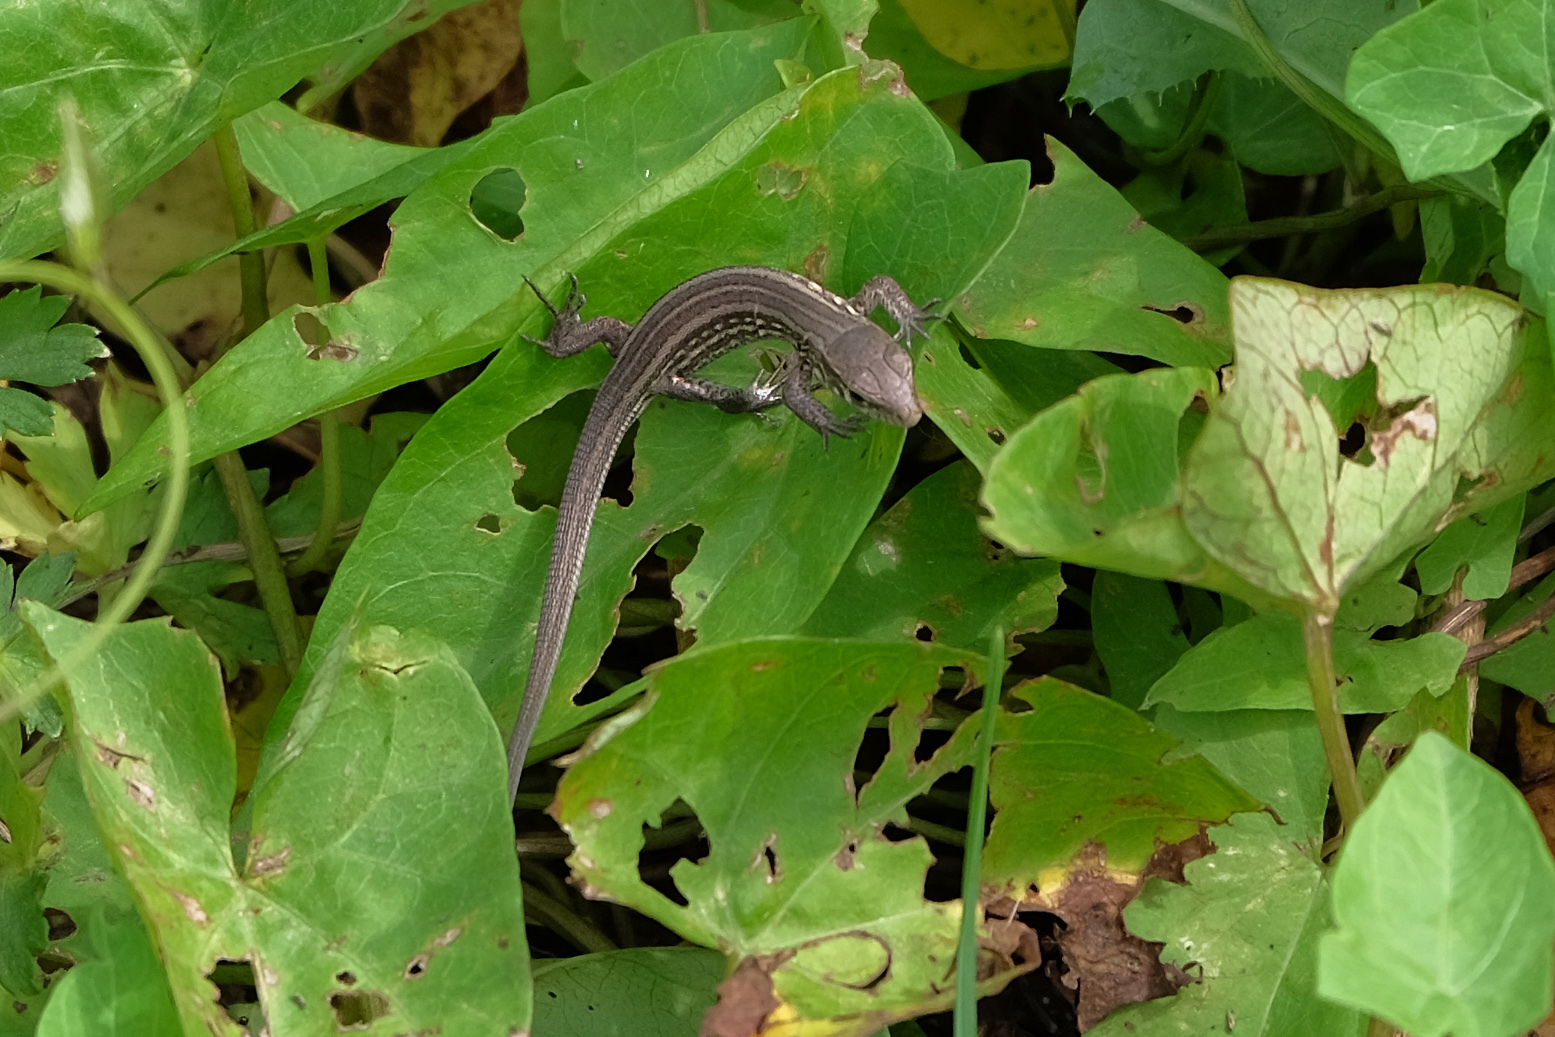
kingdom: Animalia
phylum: Chordata
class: Squamata
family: Lacertidae
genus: Lacerta
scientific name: Lacerta agilis
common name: Sand lizard
